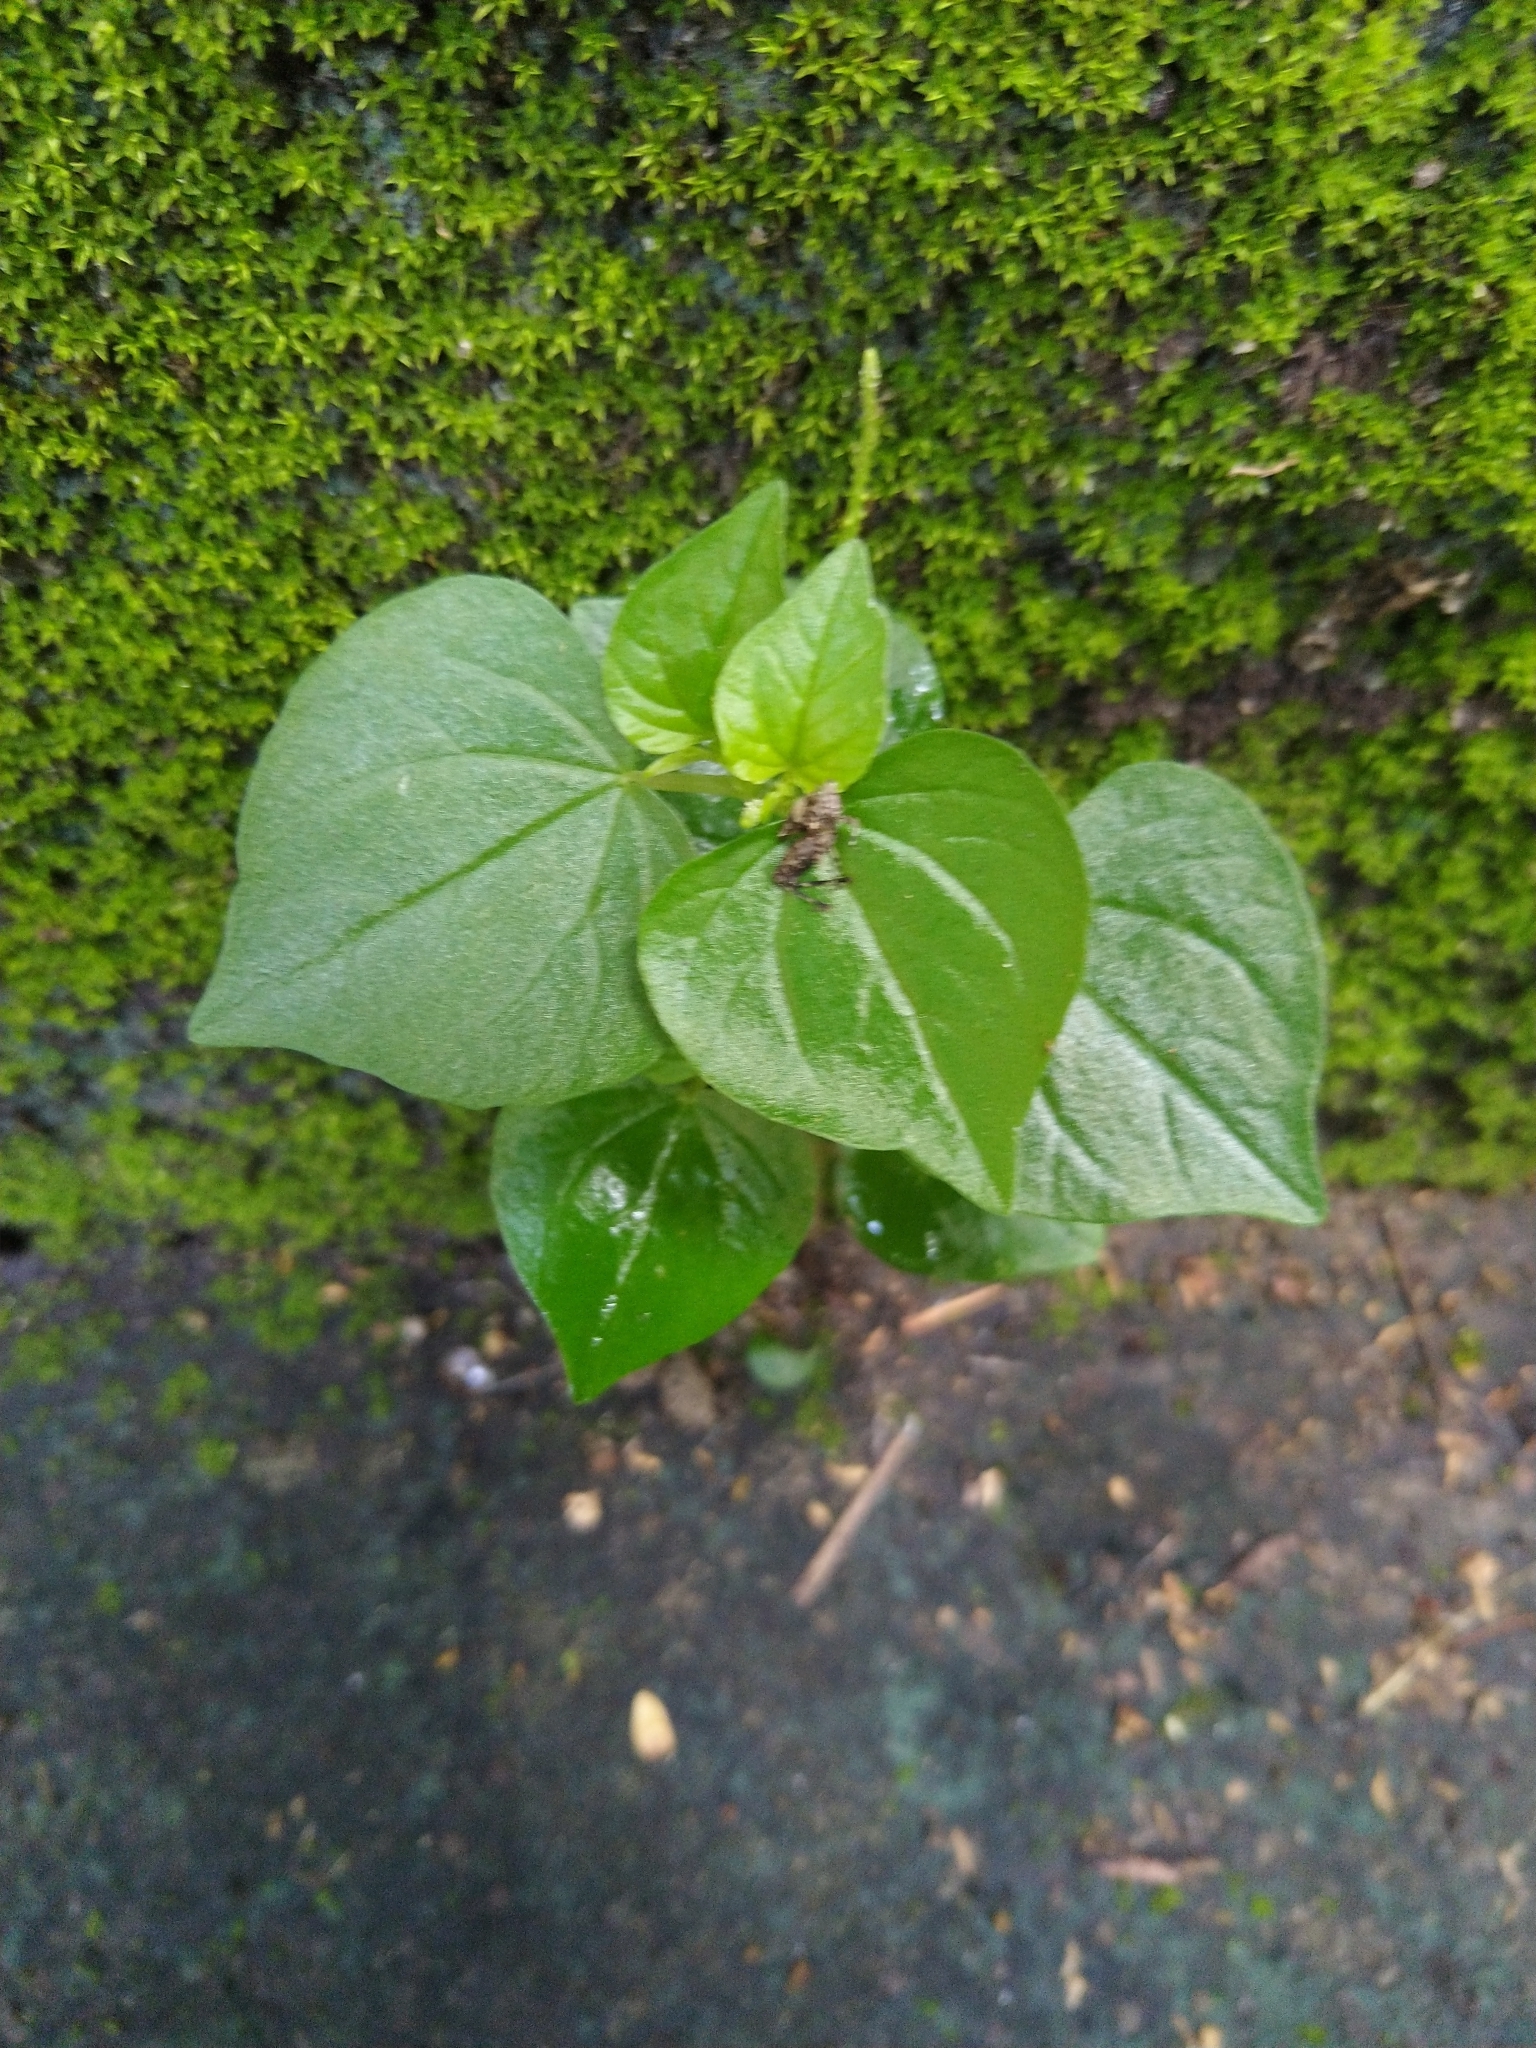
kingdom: Plantae
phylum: Tracheophyta
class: Magnoliopsida
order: Piperales
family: Piperaceae
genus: Peperomia
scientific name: Peperomia pellucida
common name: Man to man
